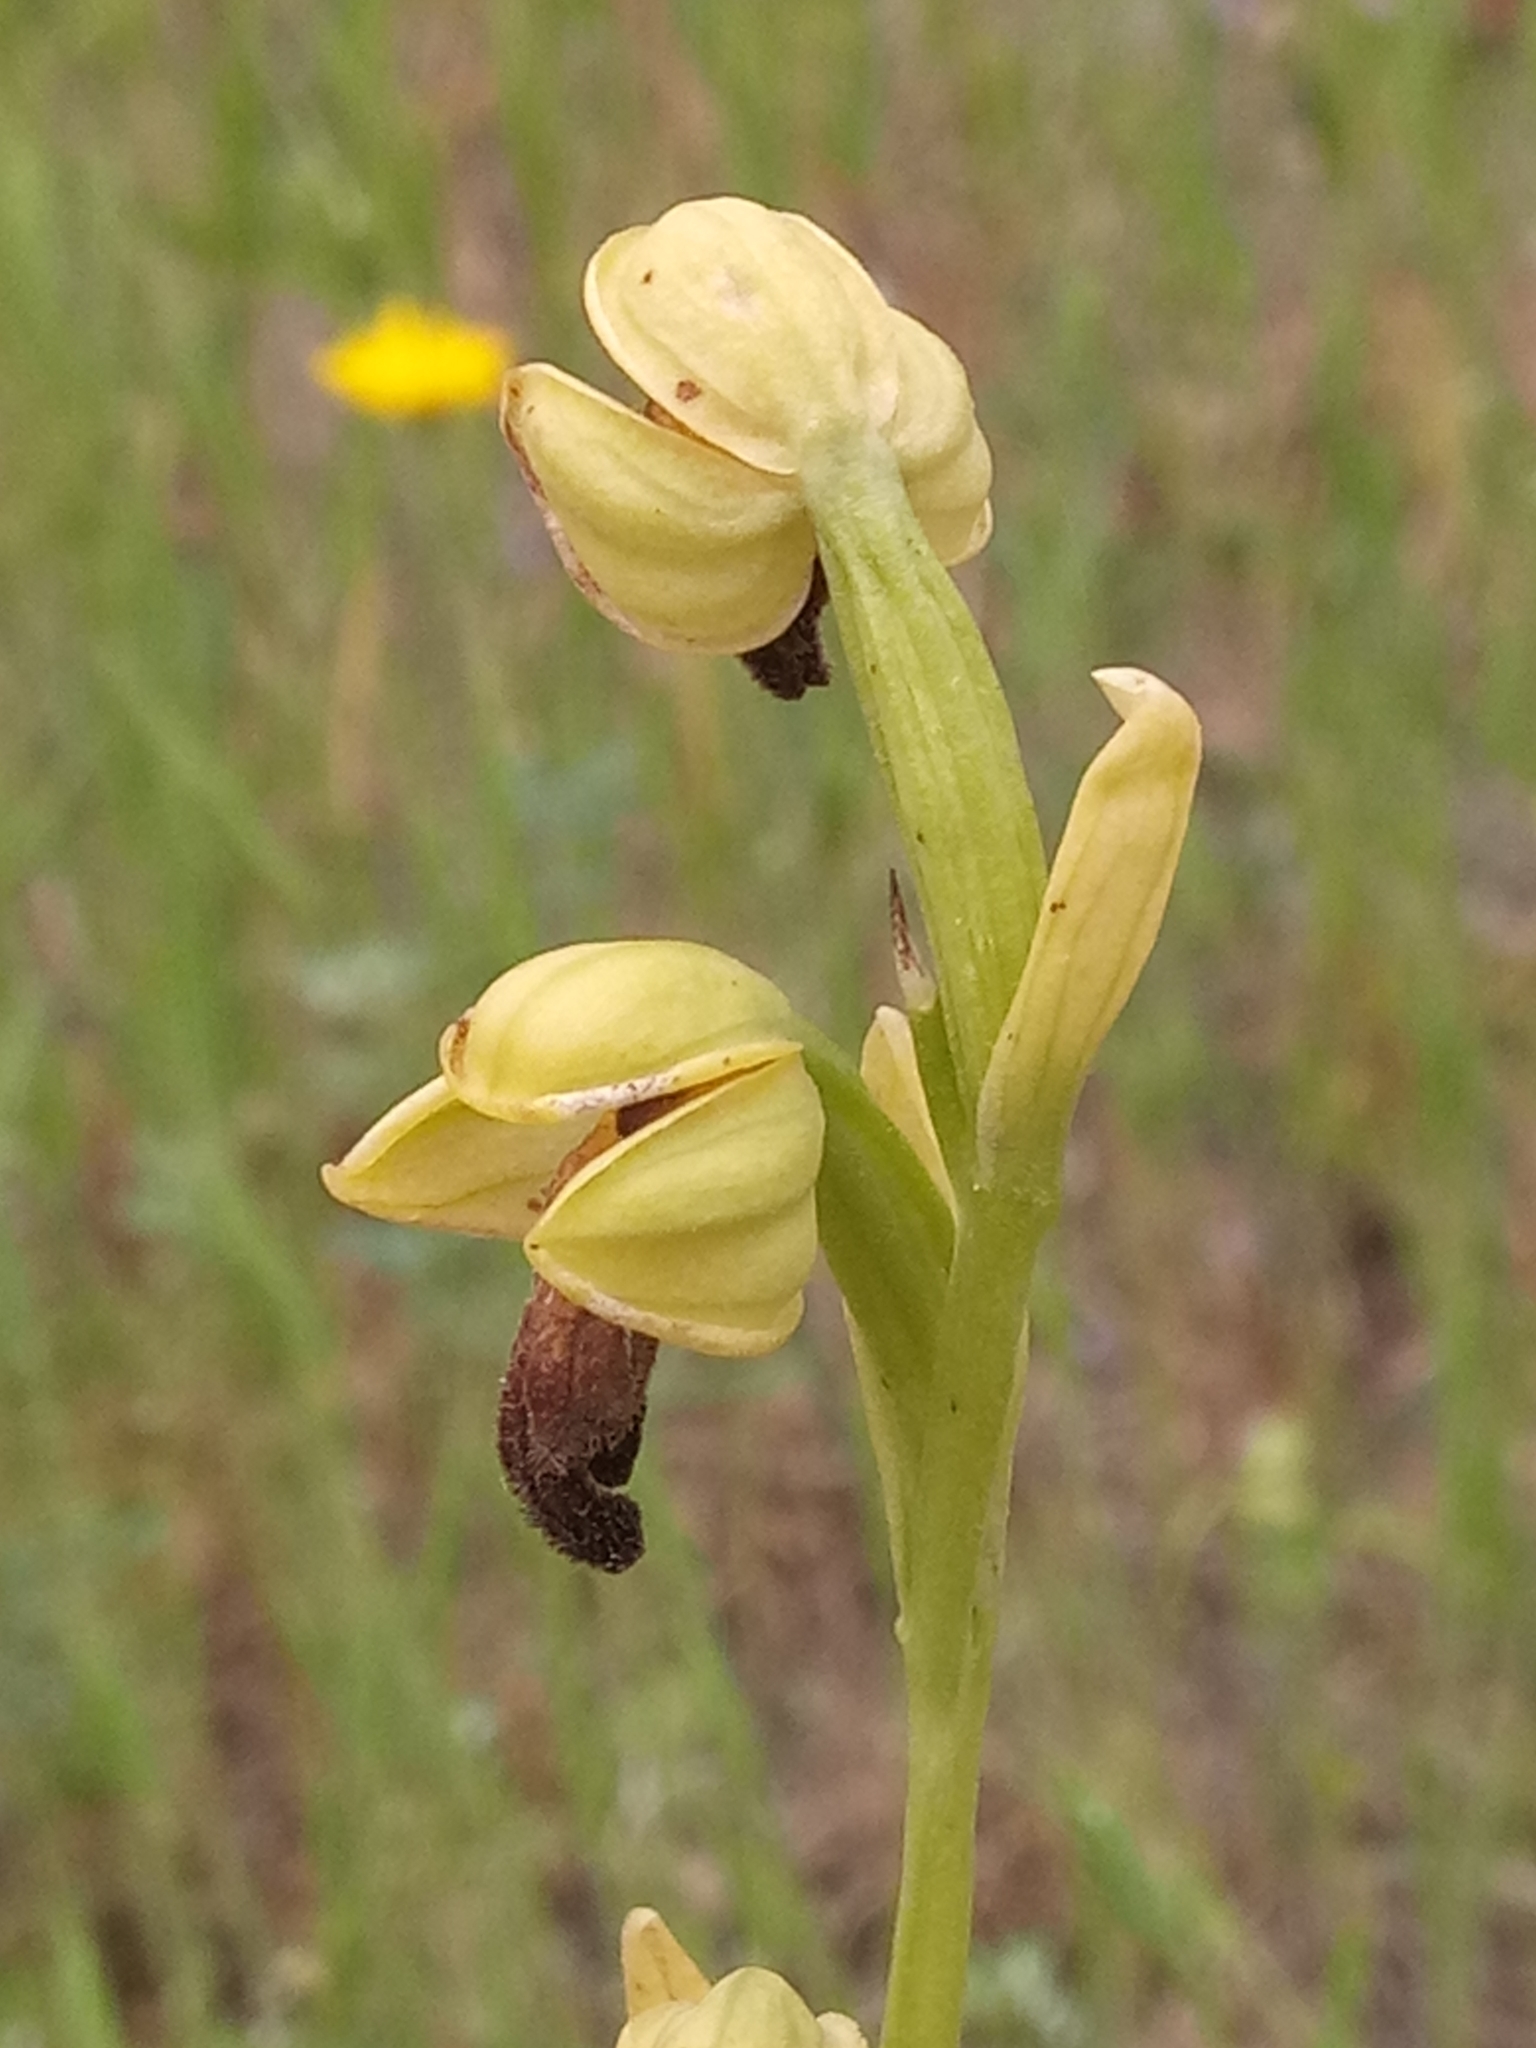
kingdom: Plantae
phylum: Tracheophyta
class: Liliopsida
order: Asparagales
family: Orchidaceae
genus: Ophrys
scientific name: Ophrys fusca
